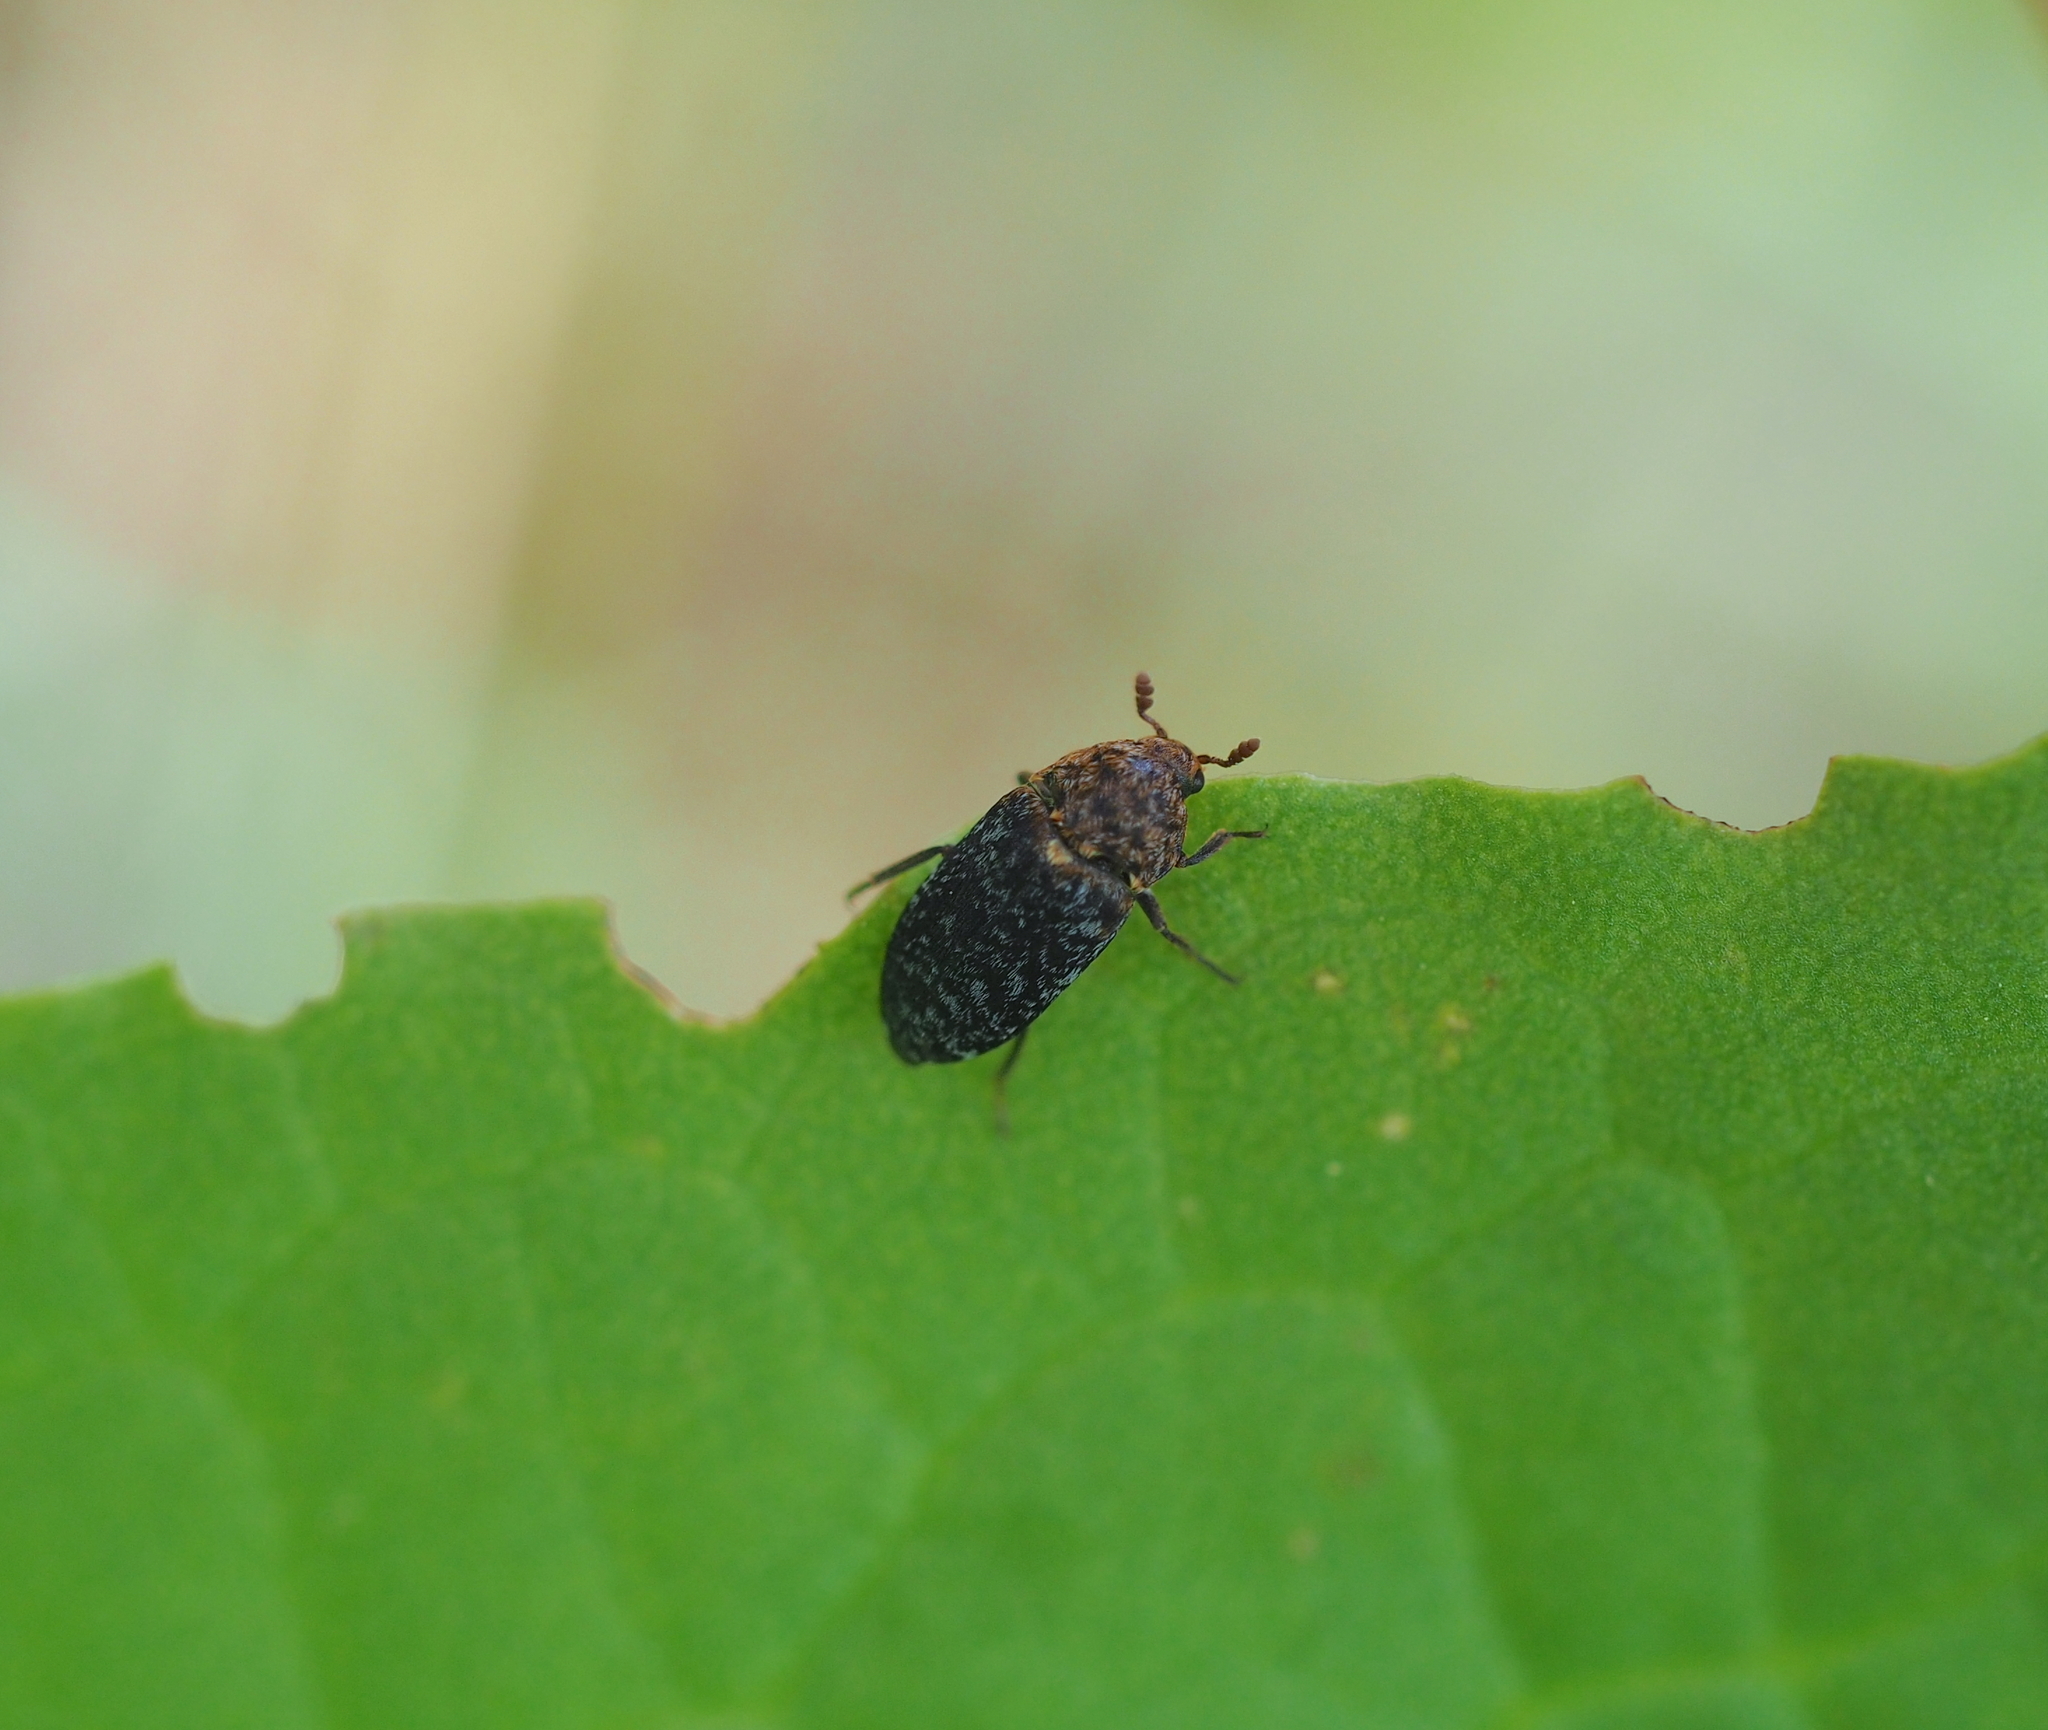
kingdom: Animalia
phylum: Arthropoda
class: Insecta
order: Coleoptera
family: Dermestidae
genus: Dermestes
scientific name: Dermestes undulatus
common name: Wavy carpet beetle
